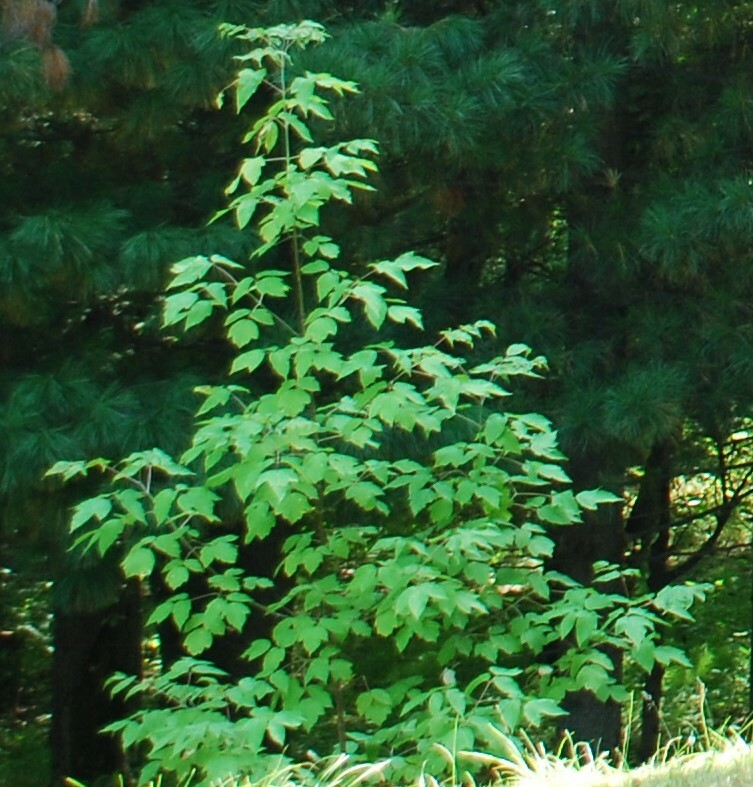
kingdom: Plantae
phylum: Tracheophyta
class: Magnoliopsida
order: Sapindales
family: Sapindaceae
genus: Acer
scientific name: Acer negundo
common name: Ashleaf maple
